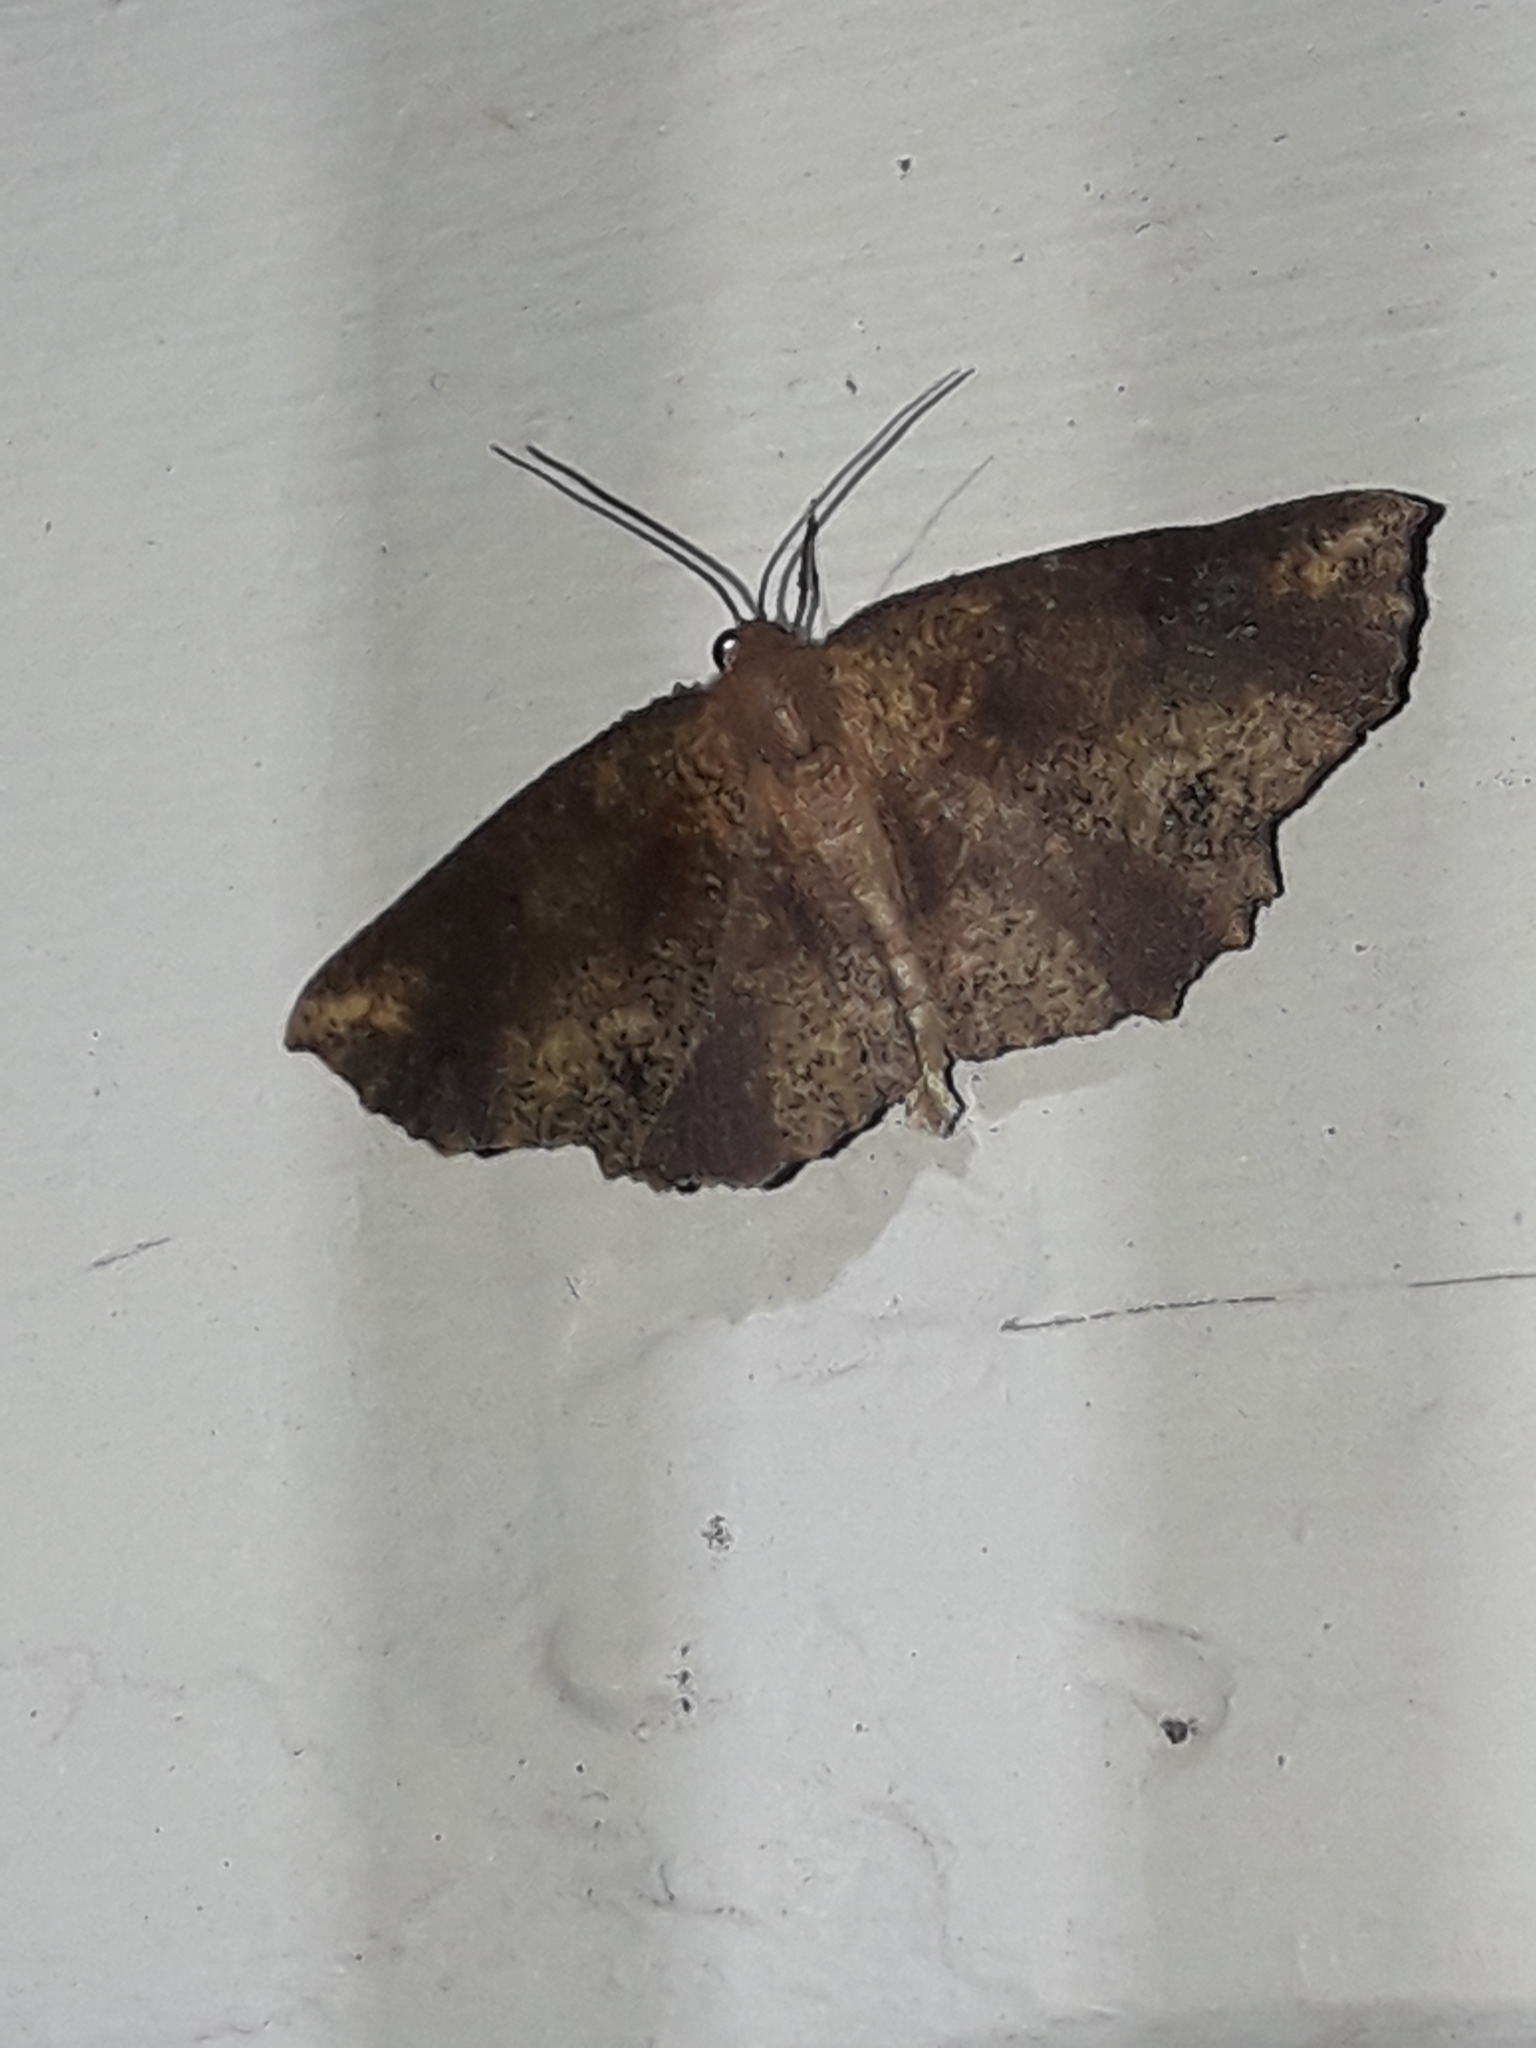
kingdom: Animalia
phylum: Arthropoda
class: Insecta
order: Lepidoptera
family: Geometridae
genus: Xyridacma
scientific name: Xyridacma ustaria
